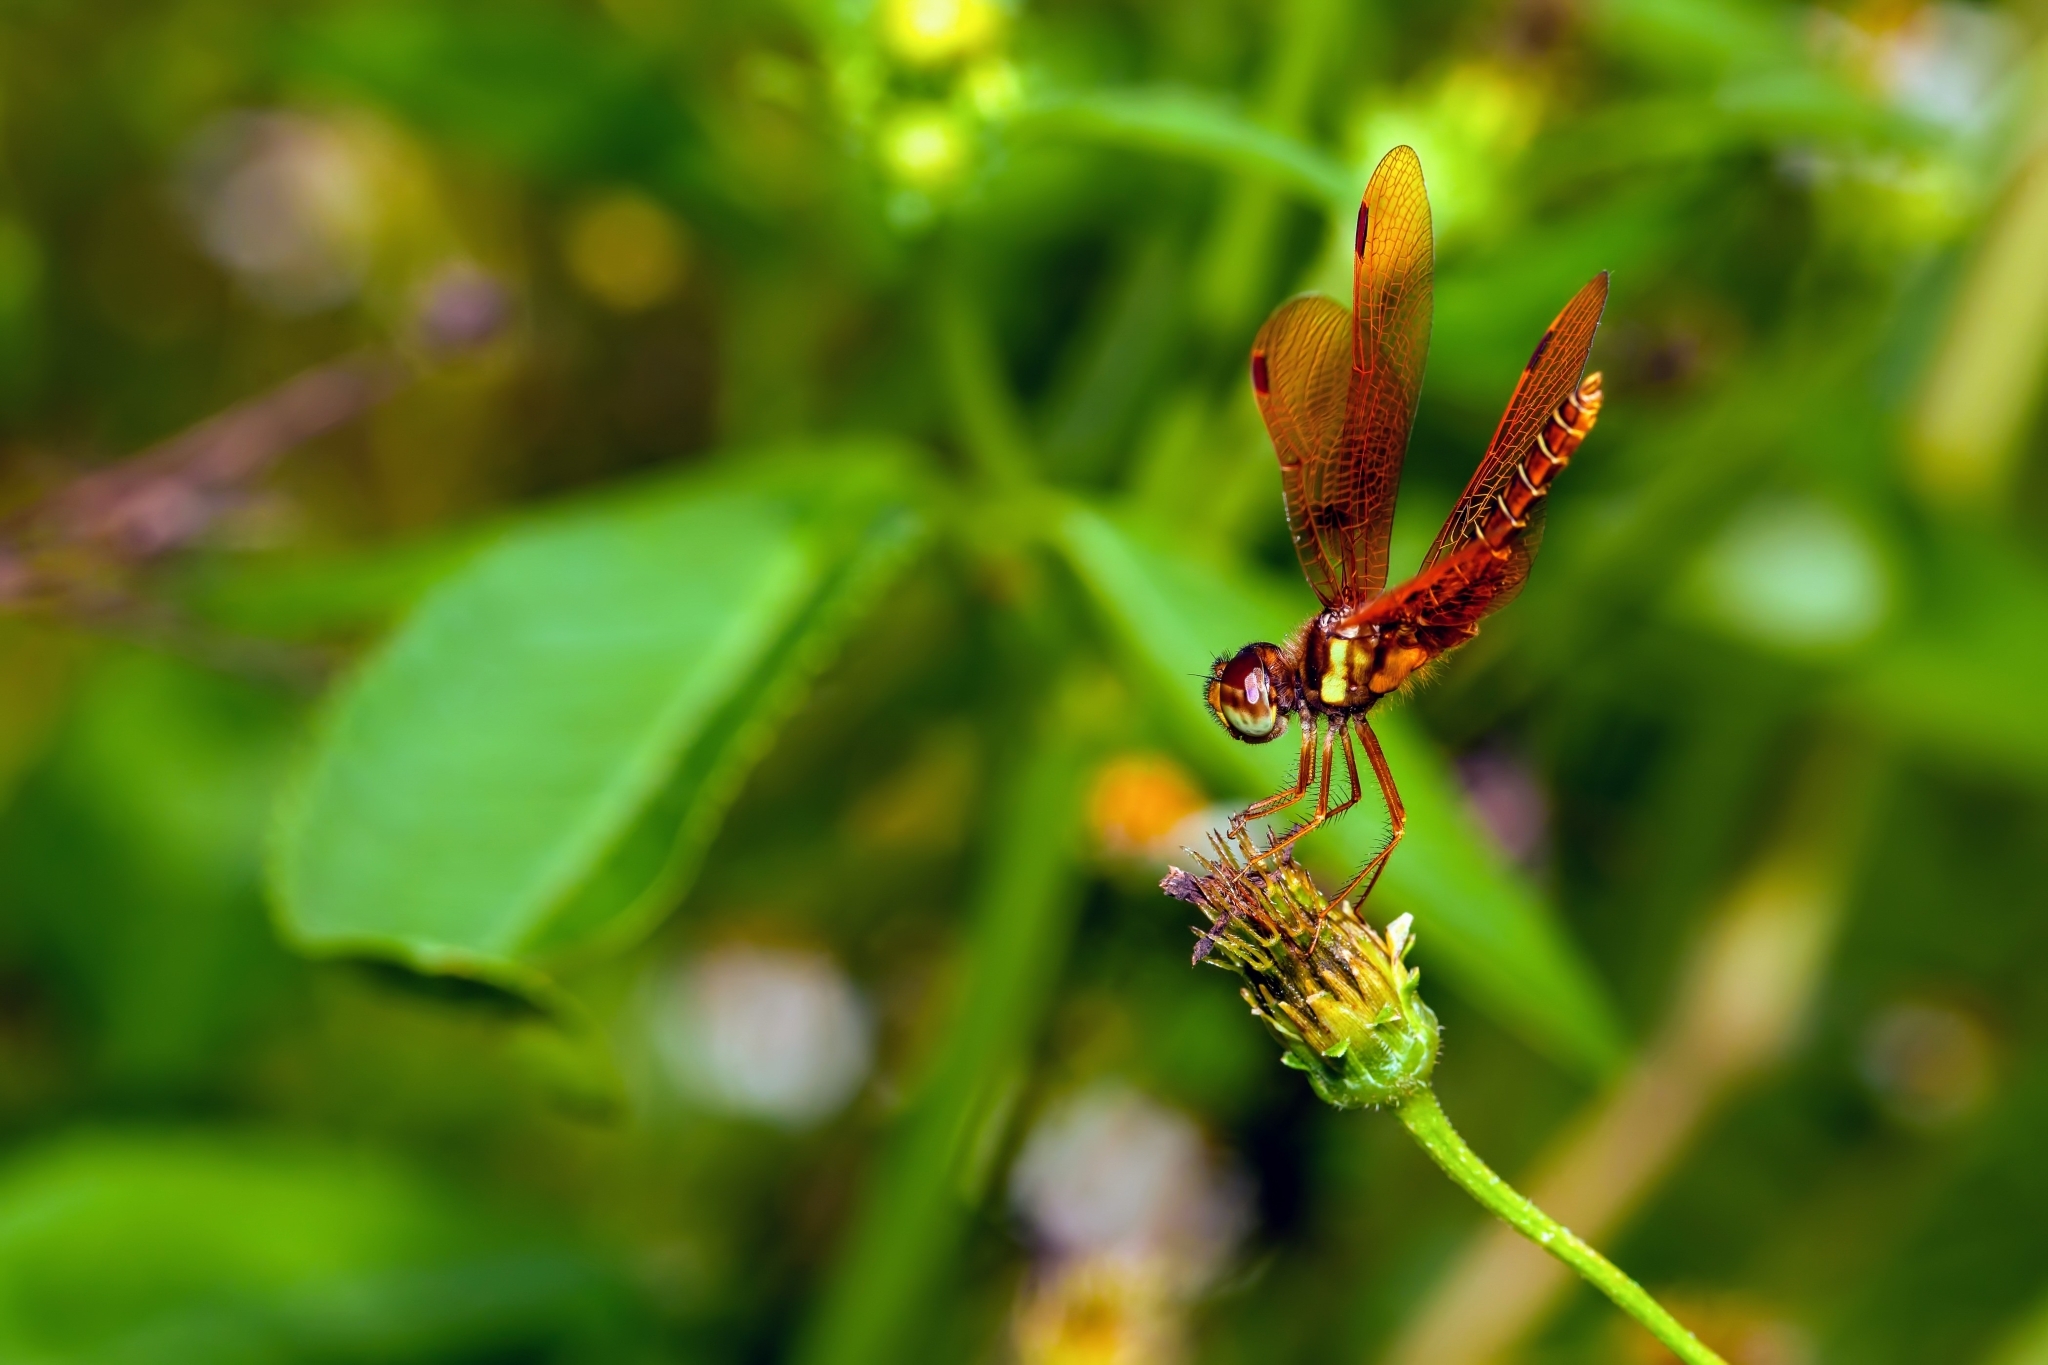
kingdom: Animalia
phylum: Arthropoda
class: Insecta
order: Odonata
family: Libellulidae
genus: Perithemis
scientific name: Perithemis tenera
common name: Eastern amberwing
